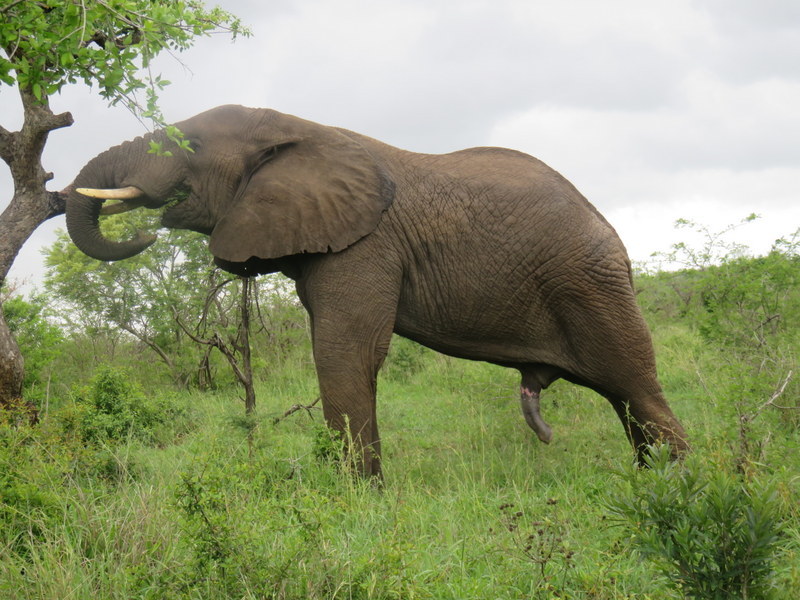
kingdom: Animalia
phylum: Chordata
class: Mammalia
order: Proboscidea
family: Elephantidae
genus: Loxodonta
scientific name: Loxodonta africana
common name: African elephant
